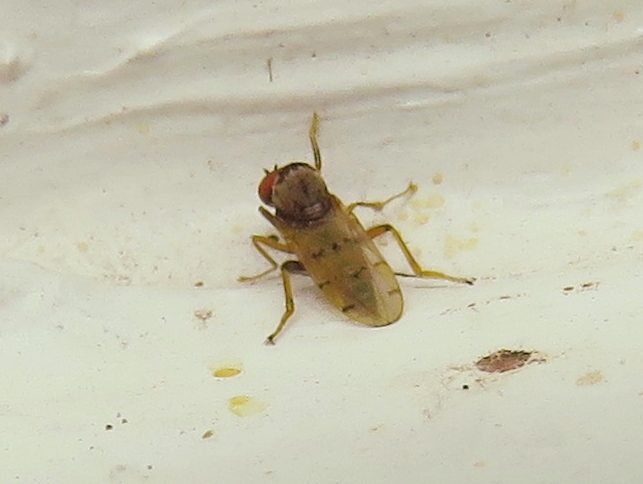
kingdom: Animalia
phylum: Arthropoda
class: Insecta
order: Diptera
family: Hybotidae
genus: Syneches
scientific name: Syneches simplex
